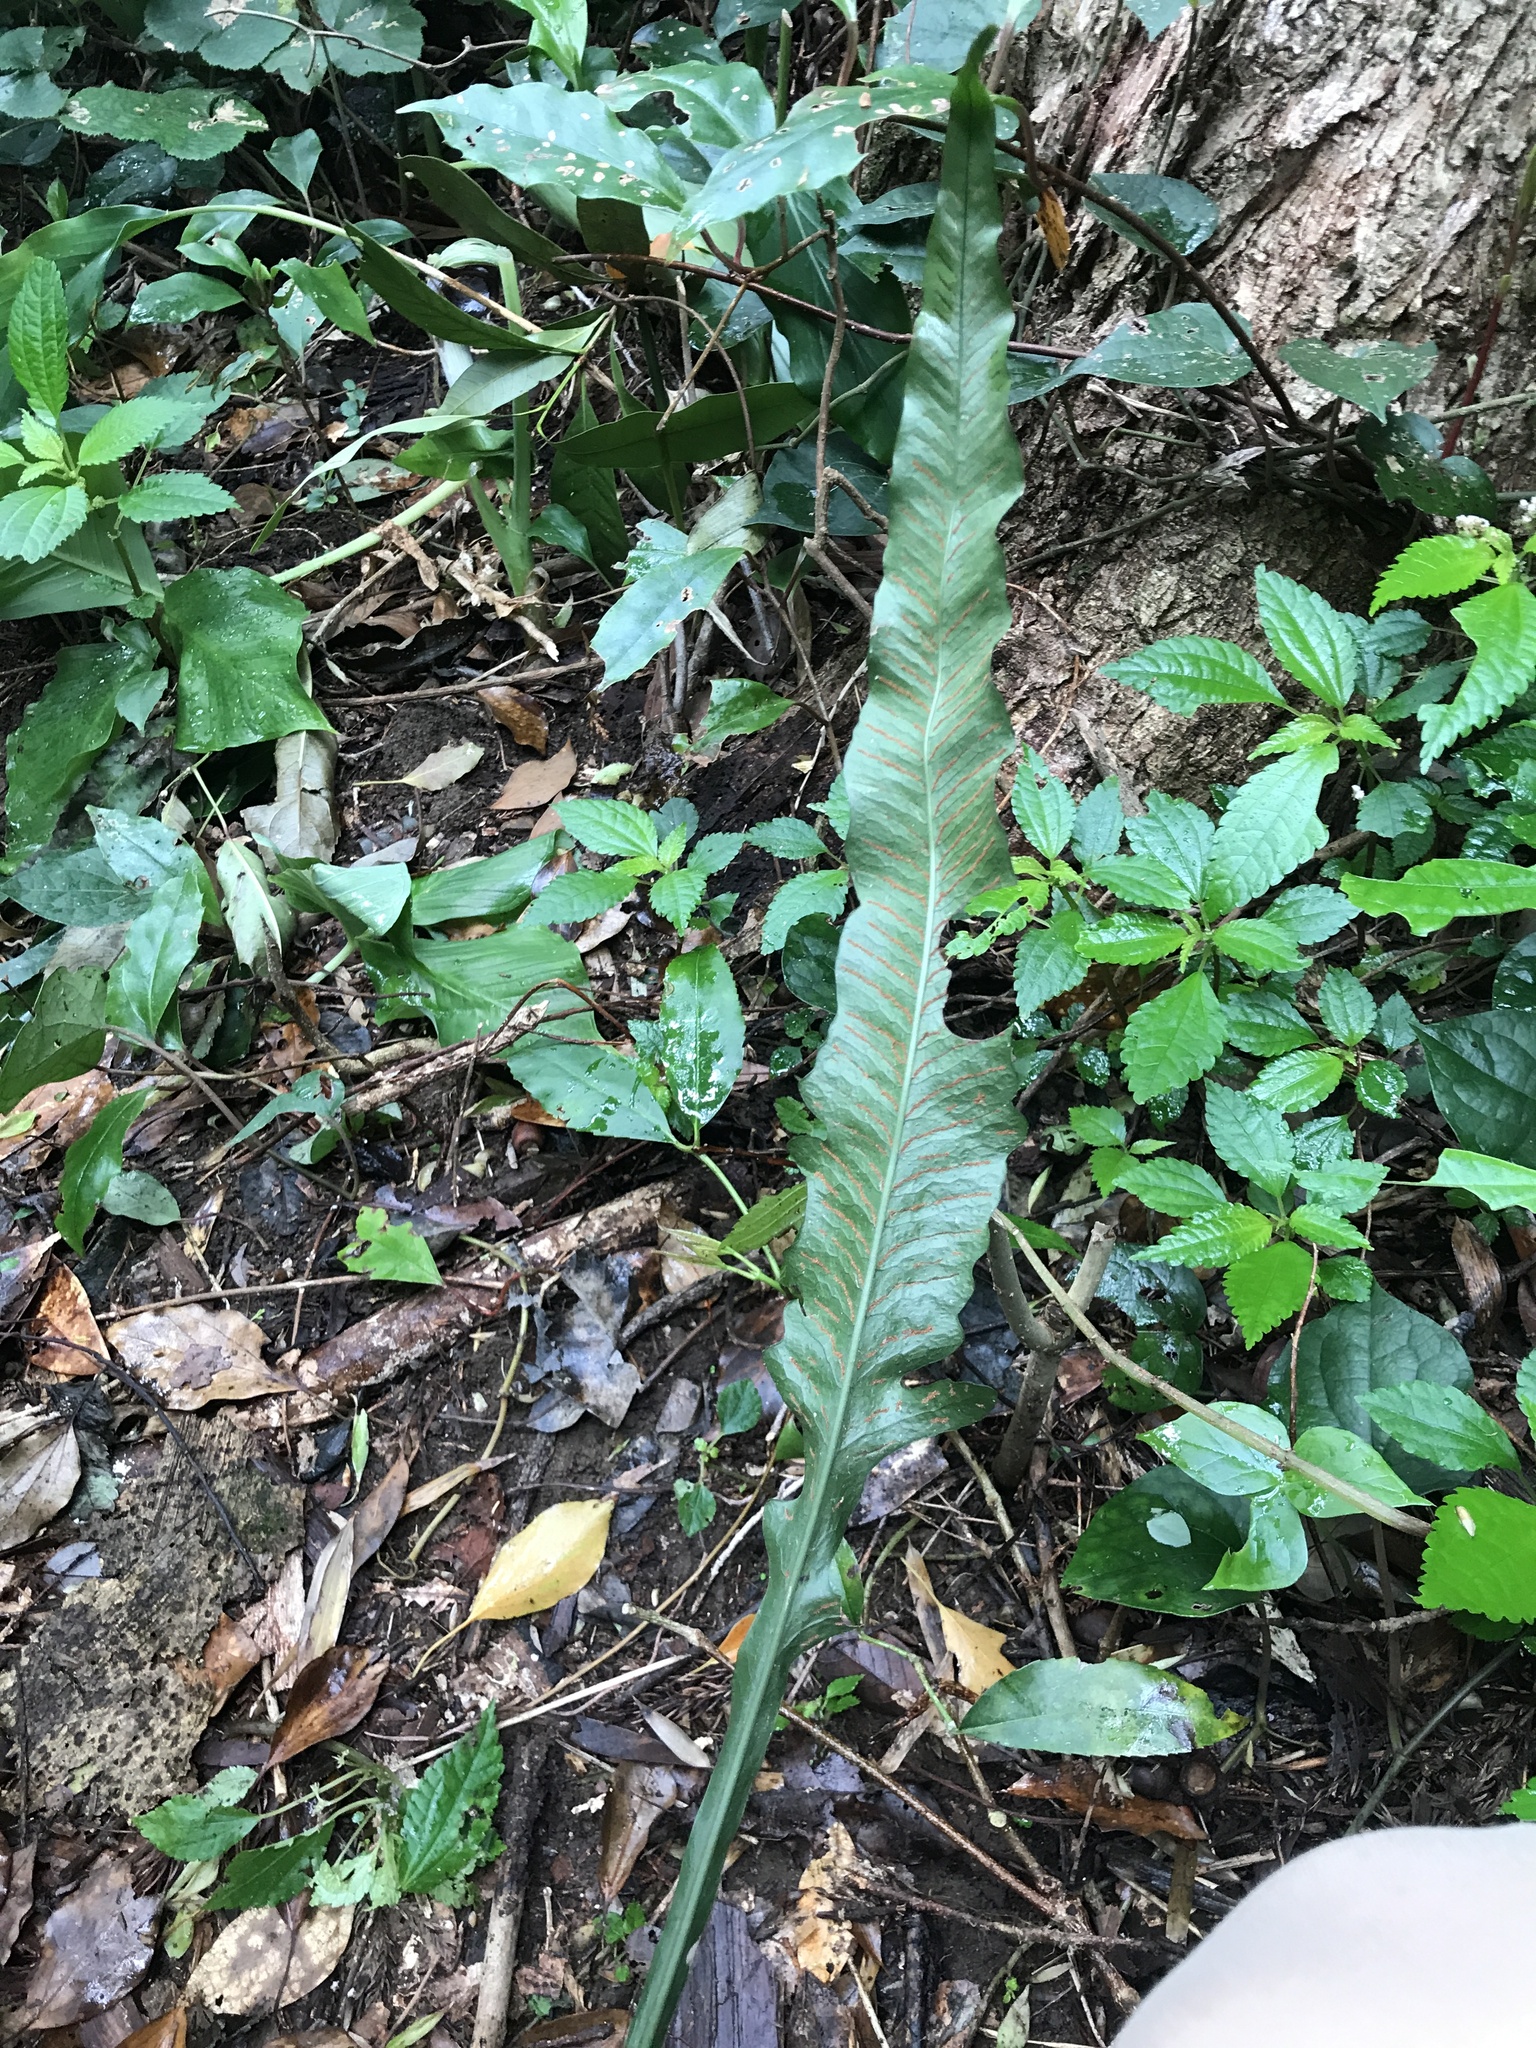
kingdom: Plantae
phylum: Tracheophyta
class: Polypodiopsida
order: Polypodiales
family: Polypodiaceae
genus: Leptochilus
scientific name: Leptochilus wrightii
